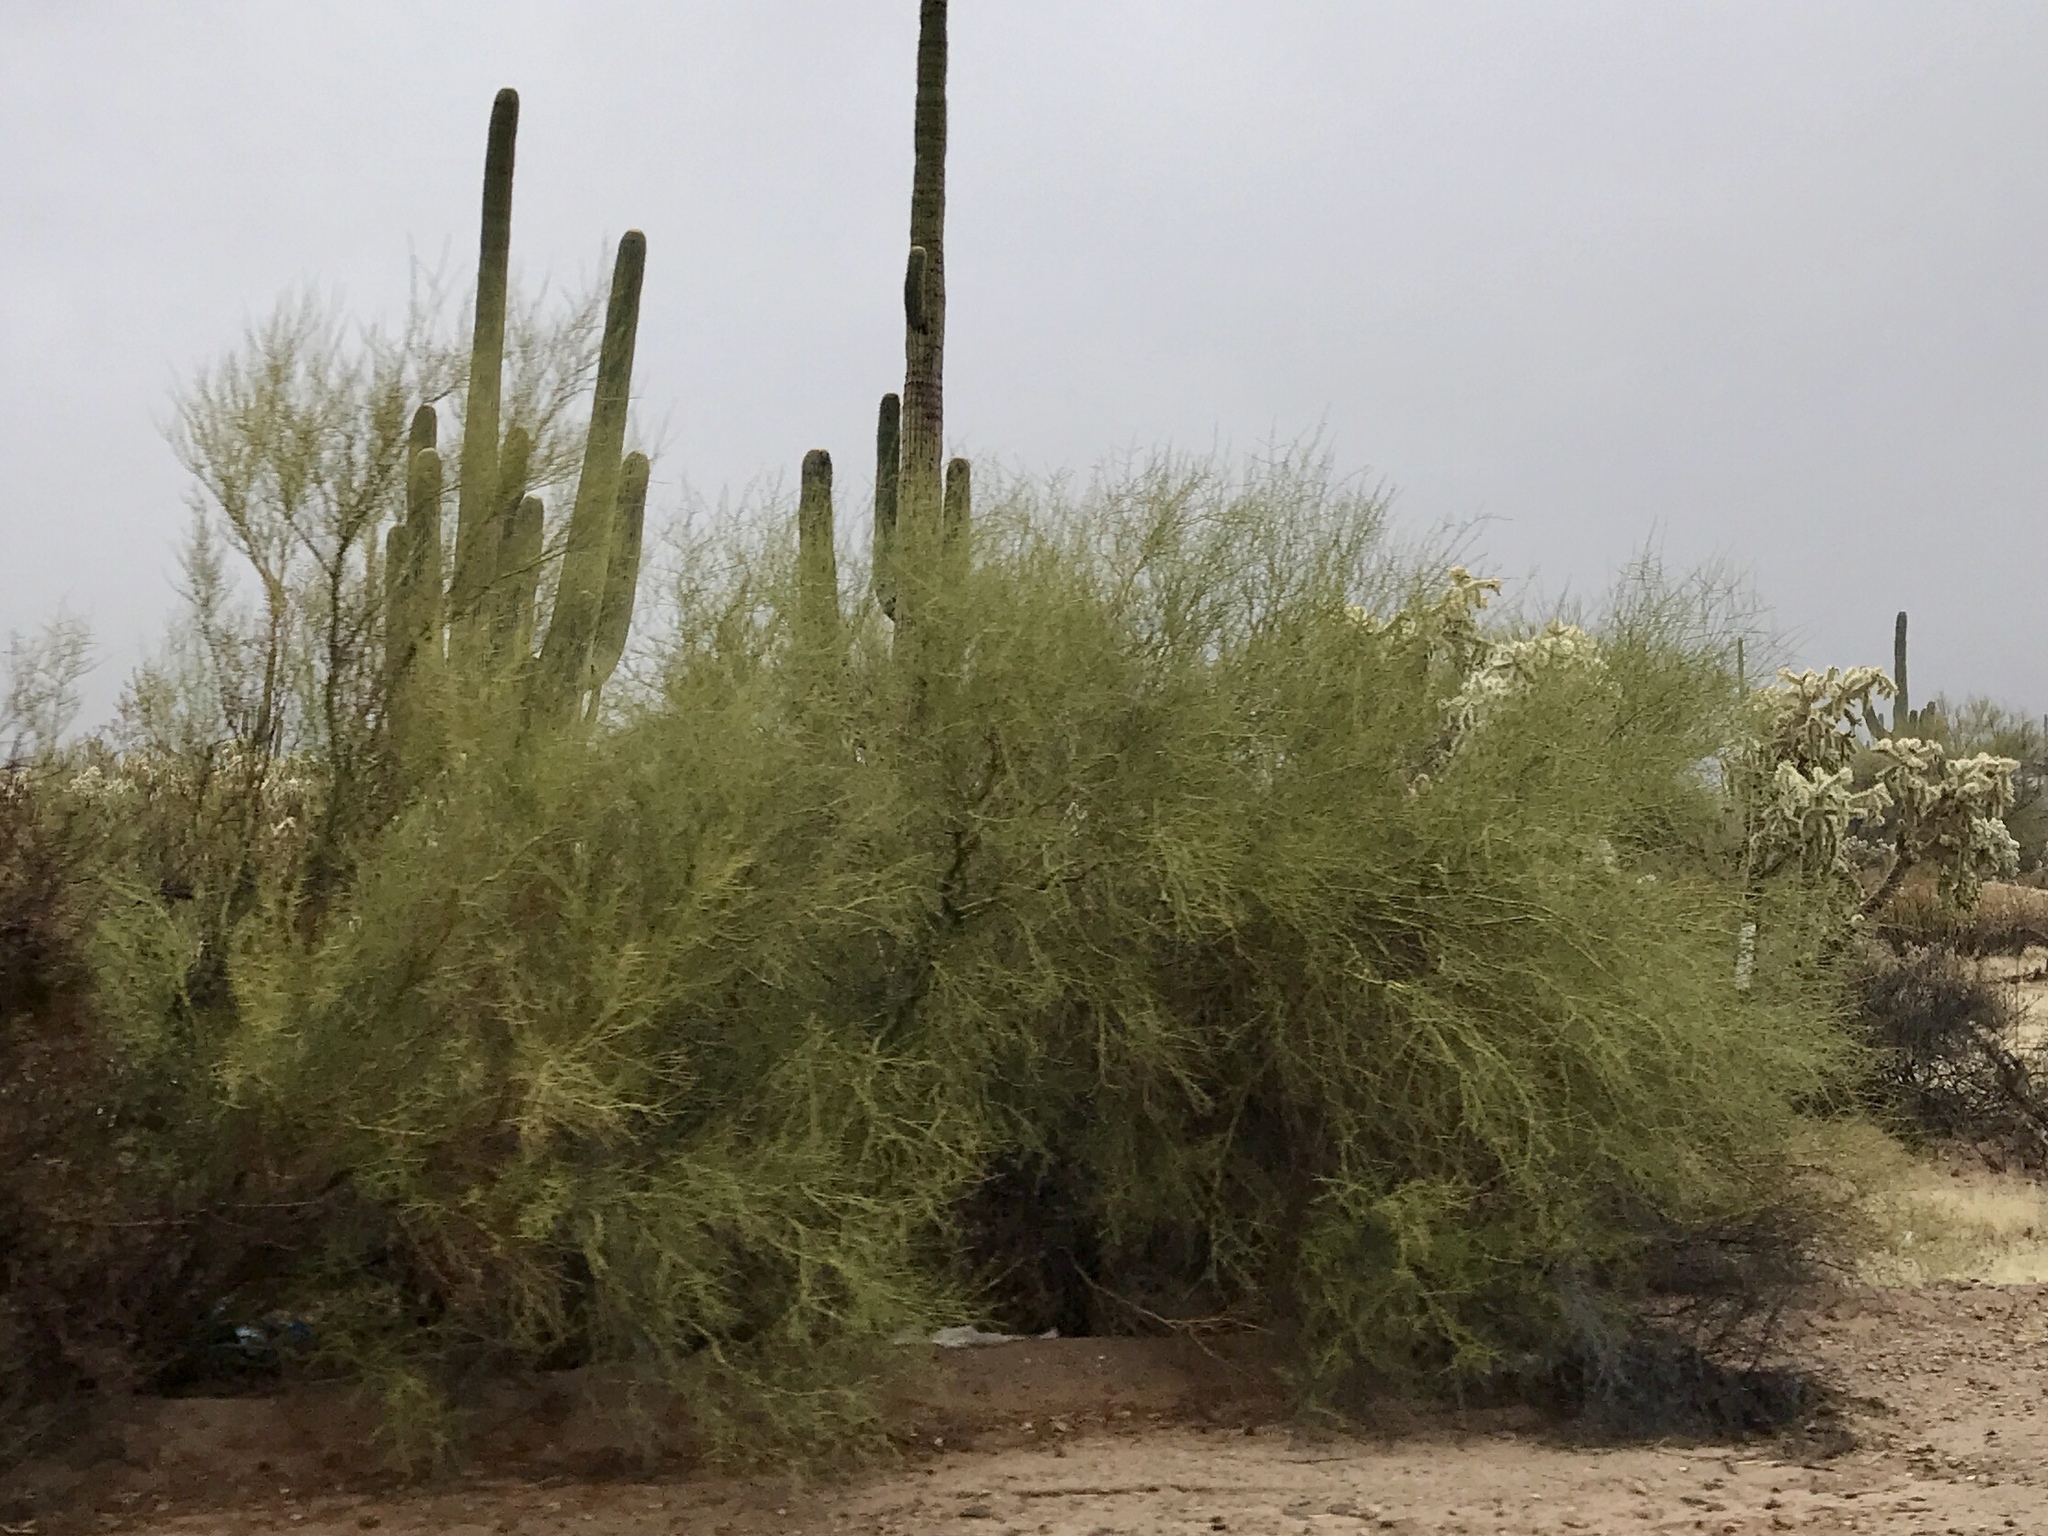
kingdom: Plantae
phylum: Tracheophyta
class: Magnoliopsida
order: Fabales
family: Fabaceae
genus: Parkinsonia
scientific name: Parkinsonia microphylla
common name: Yellow paloverde
